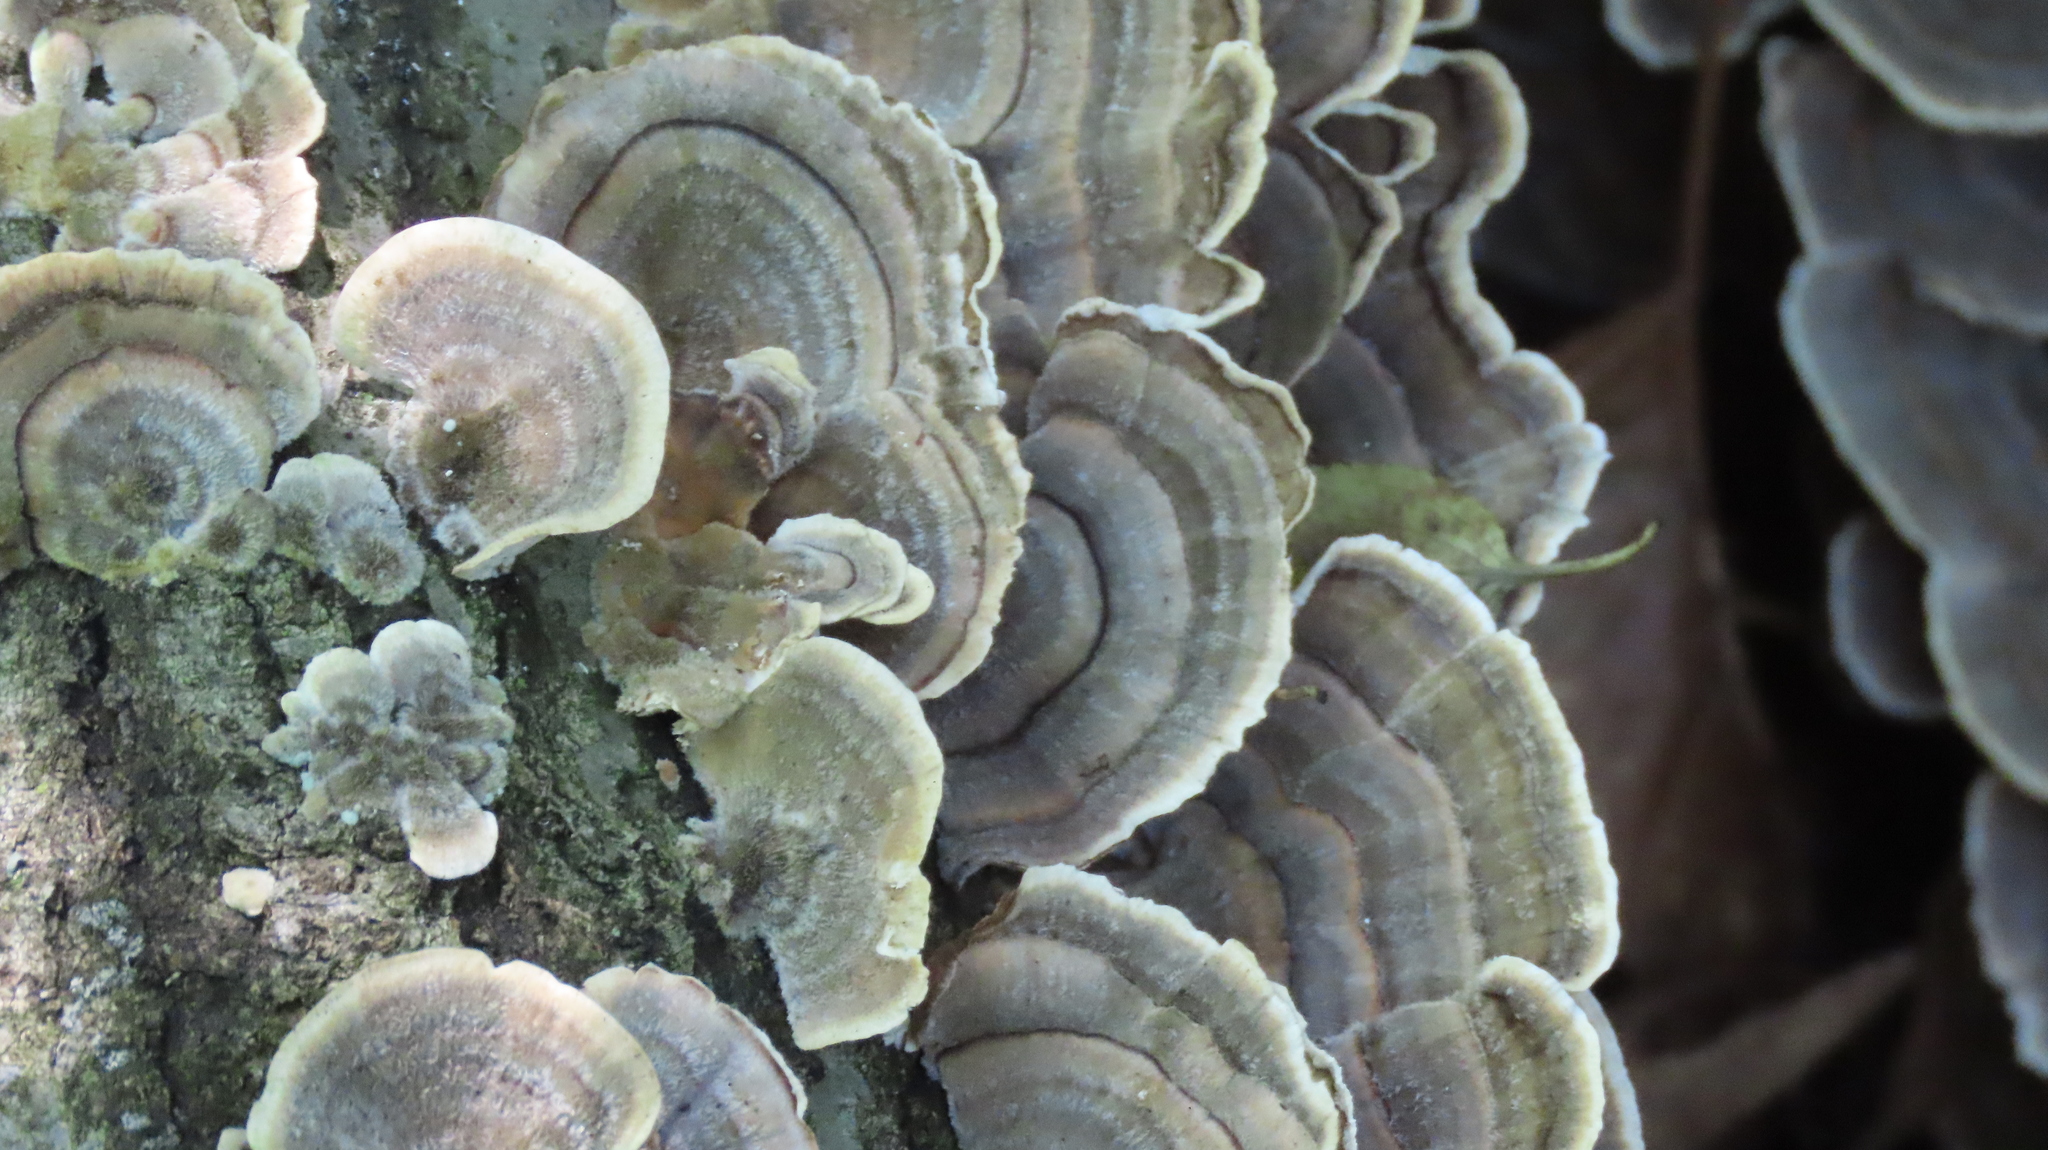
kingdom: Fungi
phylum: Basidiomycota
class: Agaricomycetes
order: Polyporales
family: Polyporaceae
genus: Trametes
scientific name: Trametes versicolor
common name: Turkeytail
